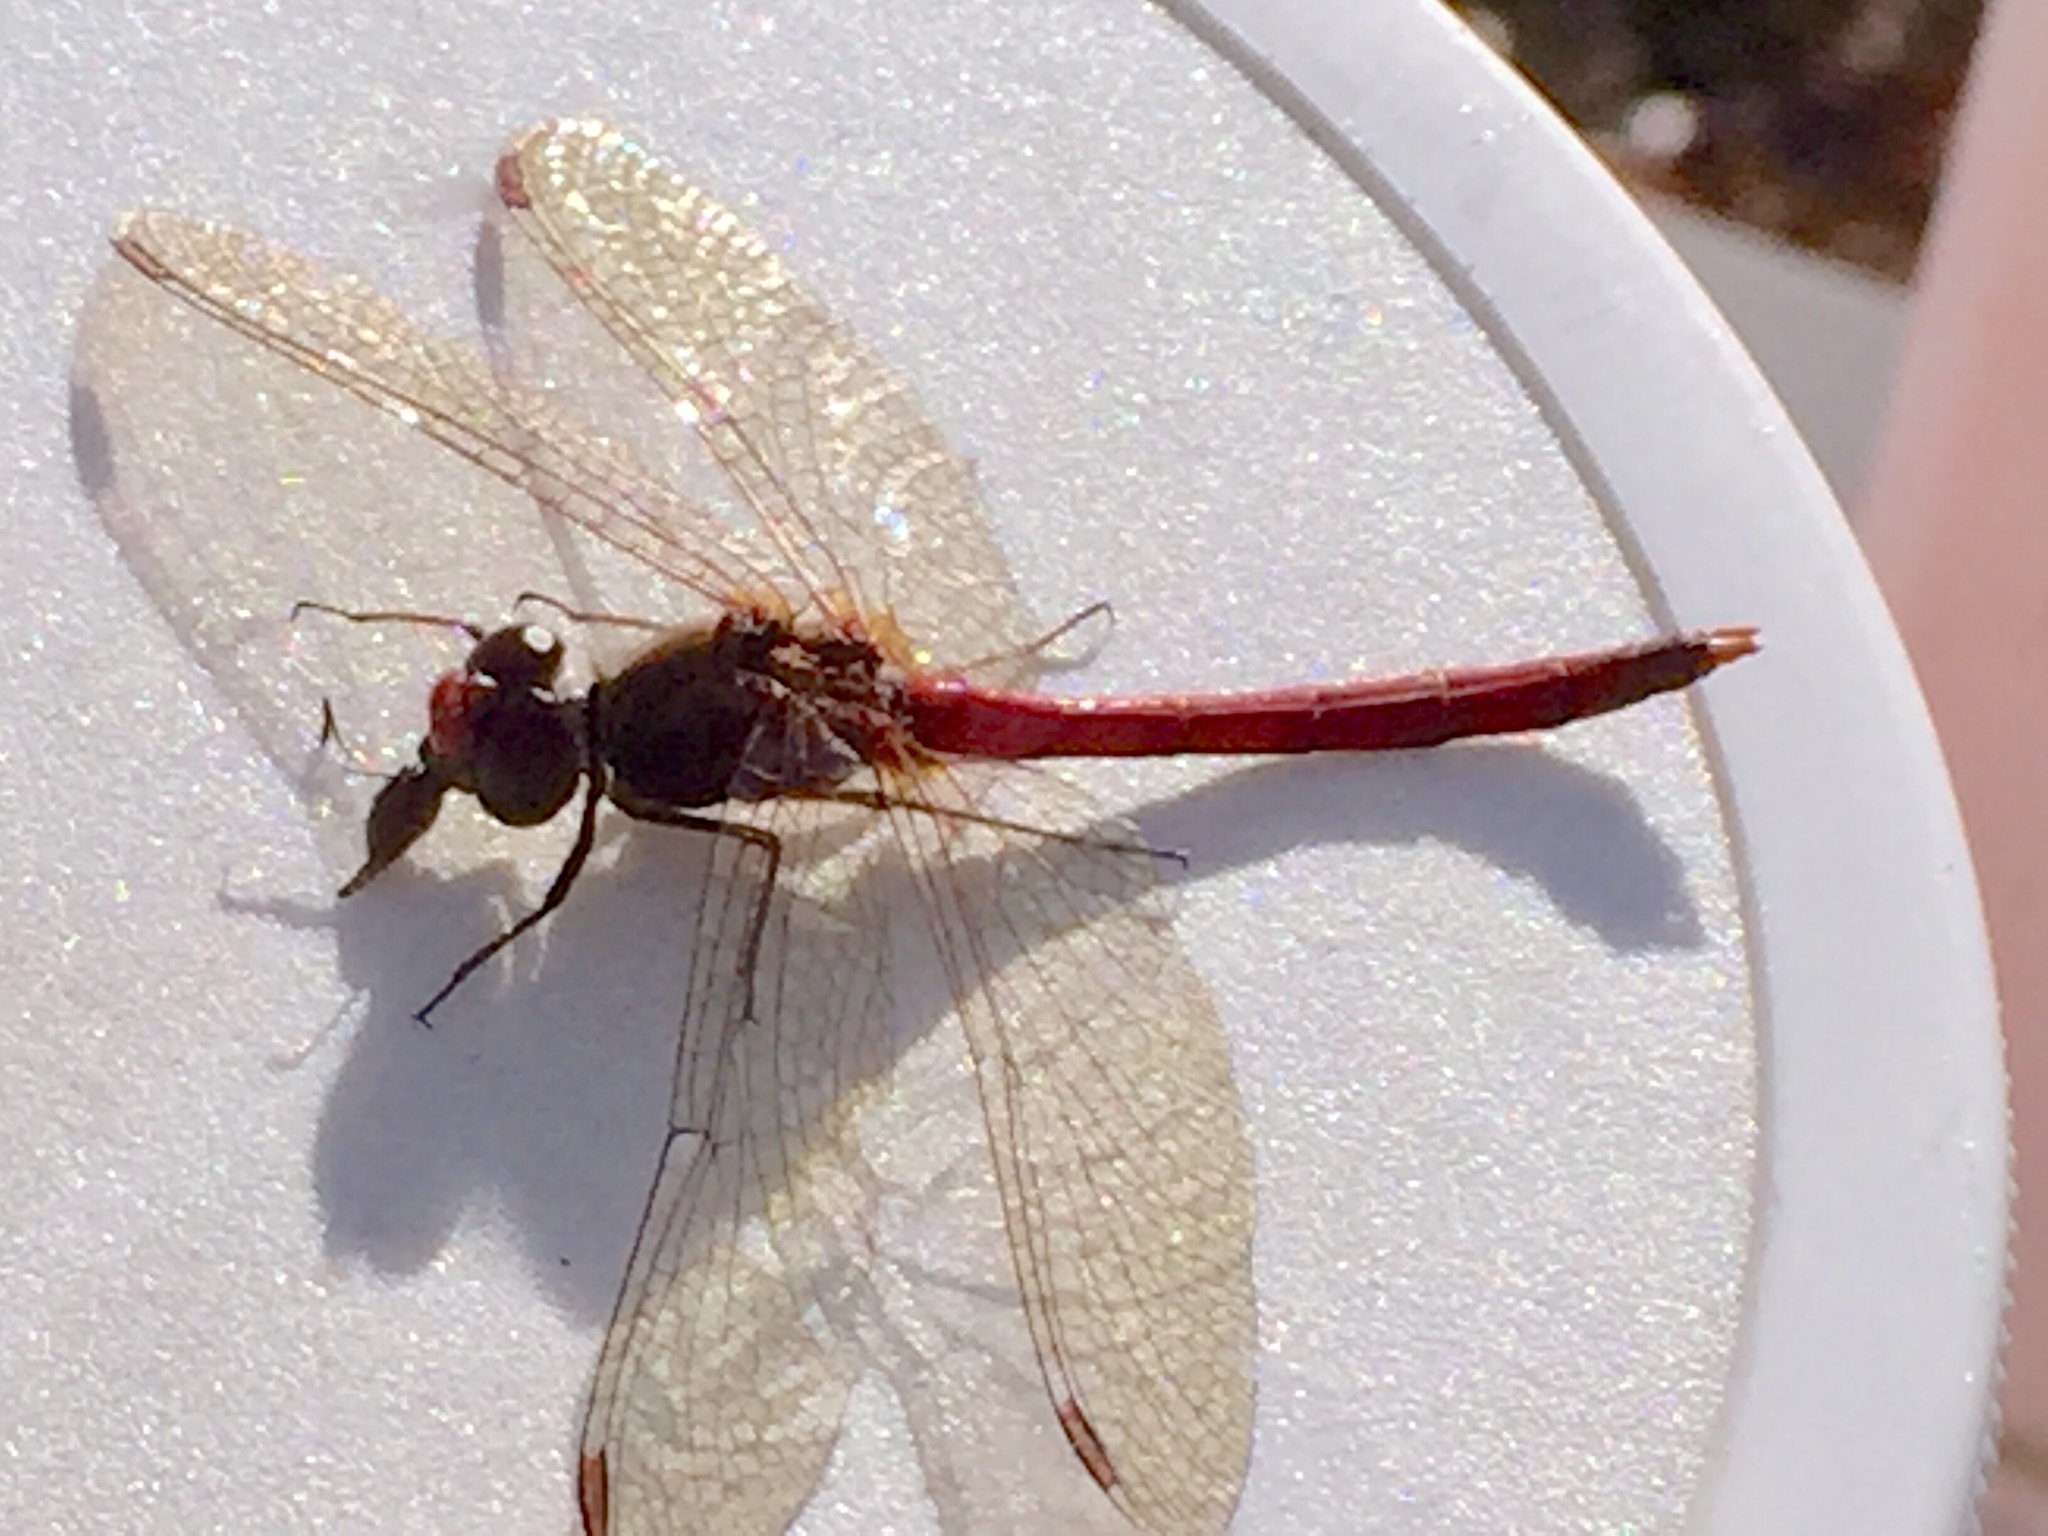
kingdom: Animalia
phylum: Arthropoda
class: Insecta
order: Odonata
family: Libellulidae
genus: Sympetrum
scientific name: Sympetrum vicinum
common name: Autumn meadowhawk
